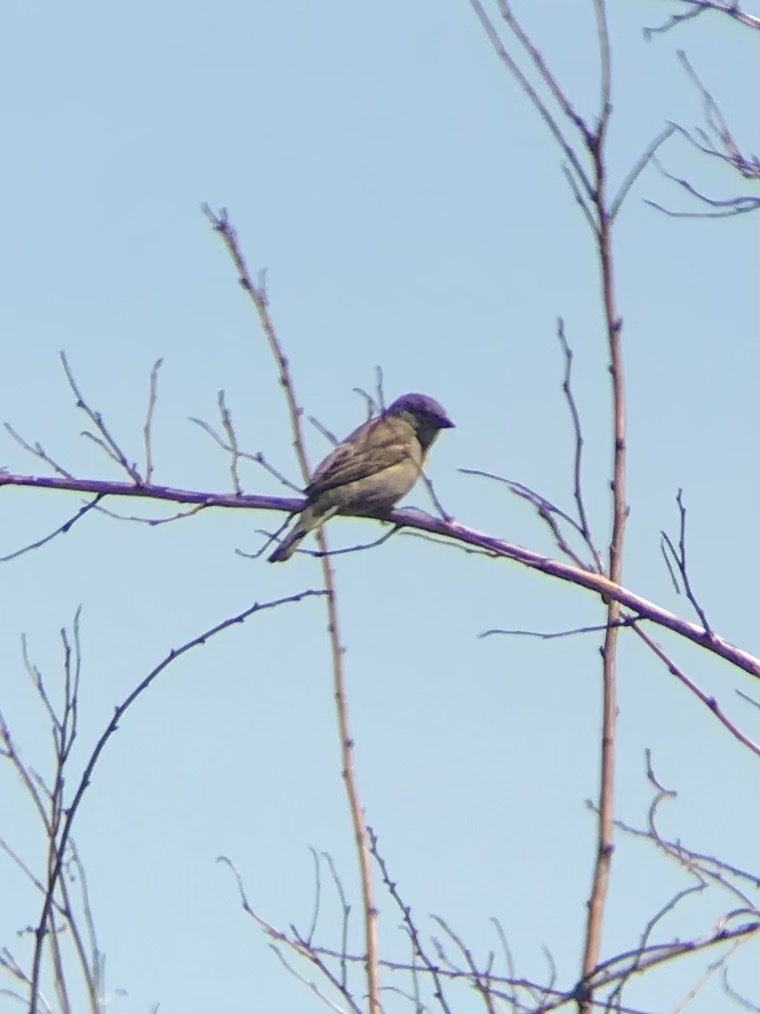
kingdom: Animalia
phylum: Chordata
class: Aves
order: Passeriformes
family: Passeridae
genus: Passer
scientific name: Passer domesticus
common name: House sparrow
